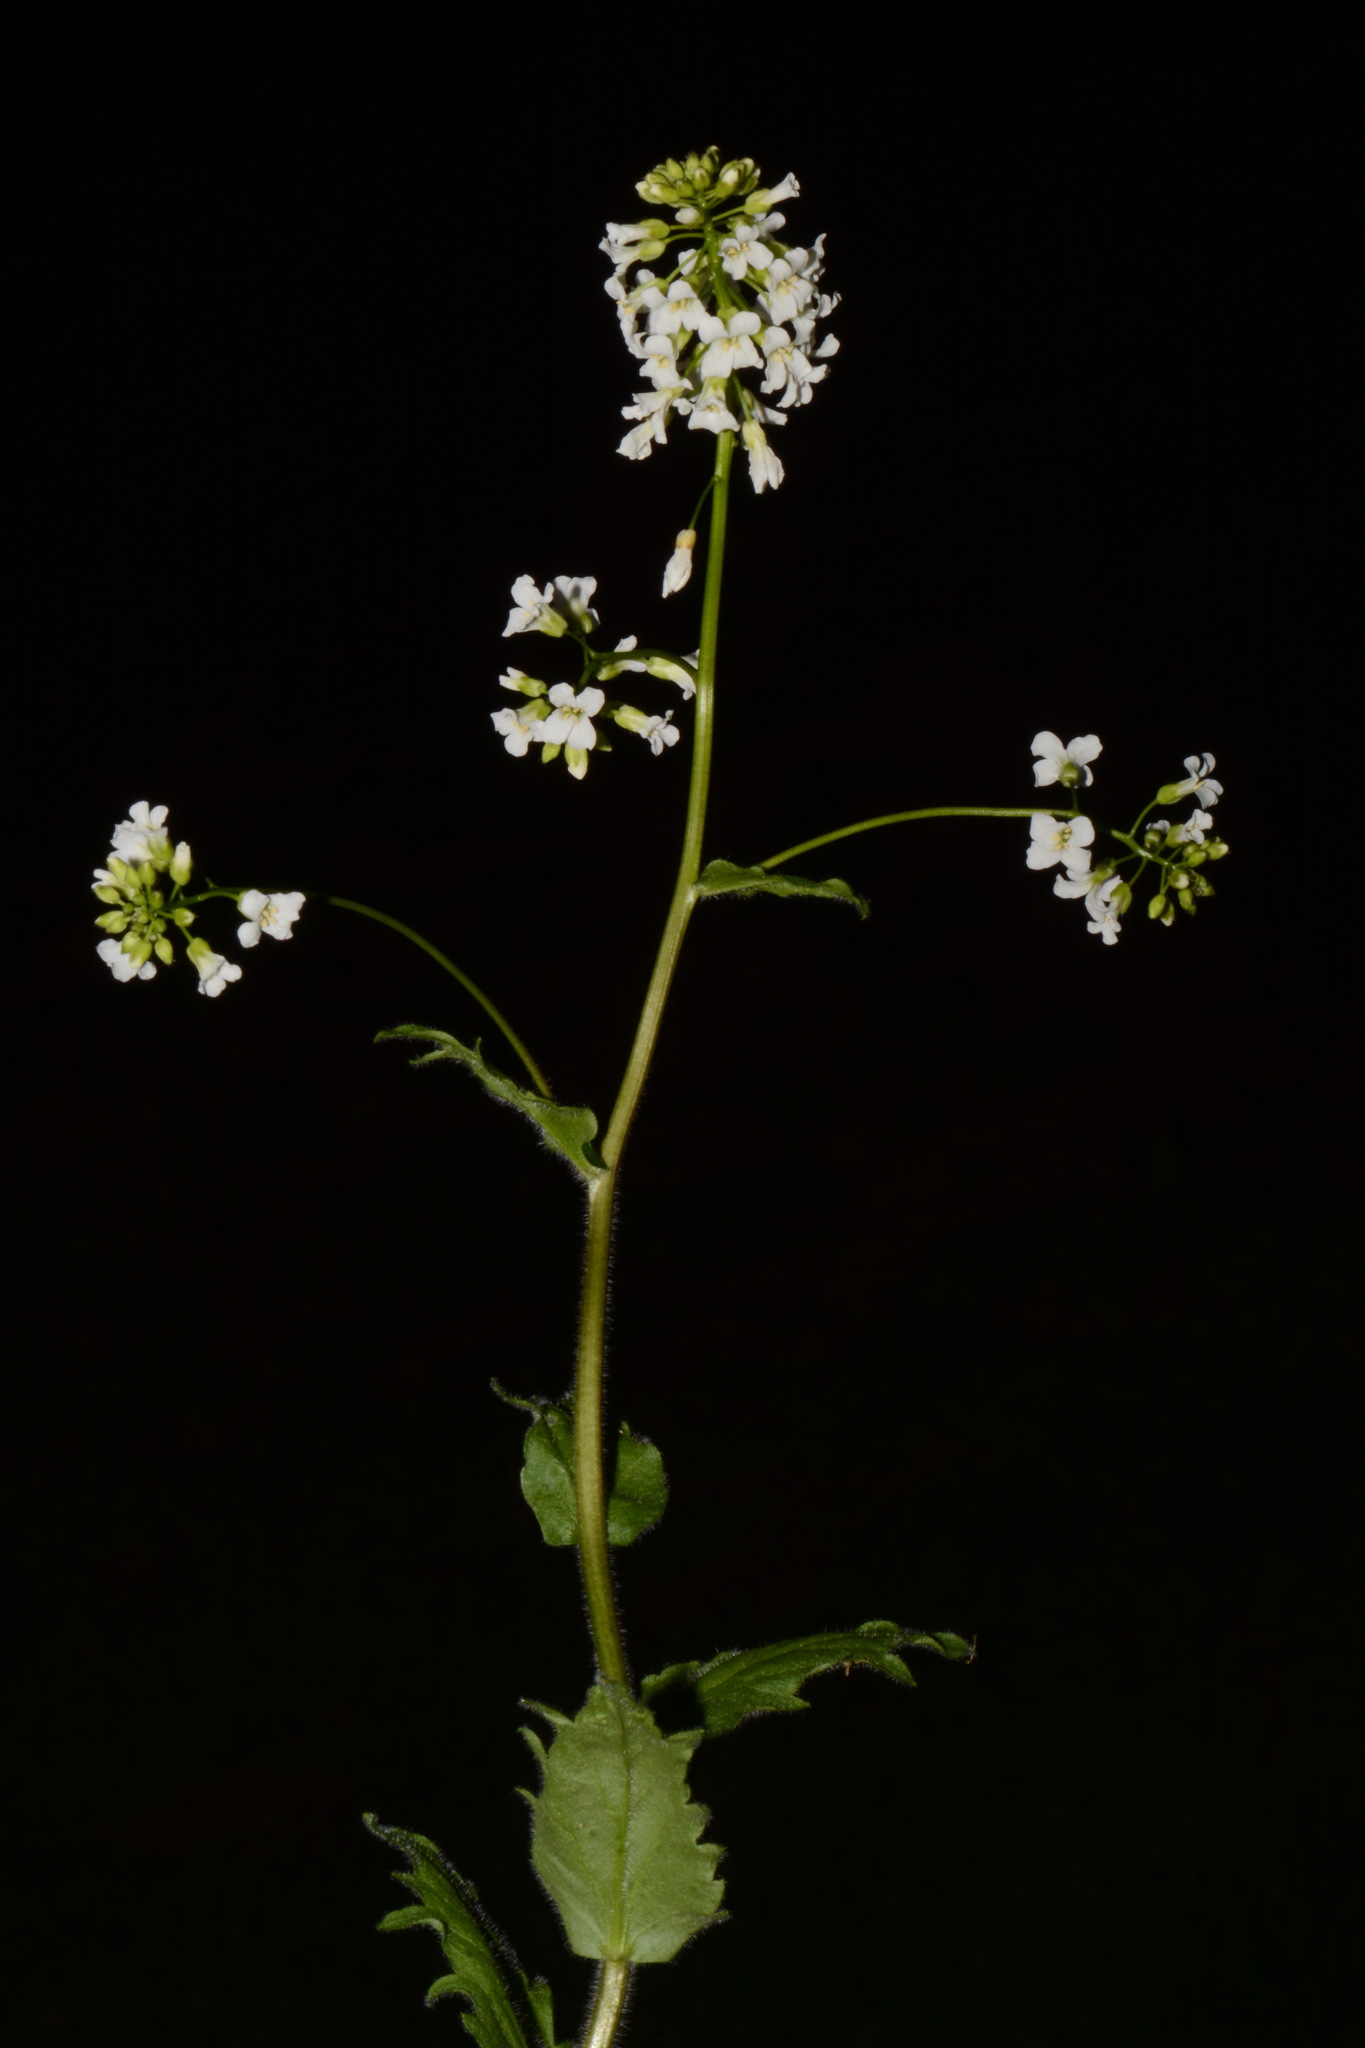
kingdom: Plantae
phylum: Tracheophyta
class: Magnoliopsida
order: Brassicales
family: Brassicaceae
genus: Arabis
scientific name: Arabis patens
